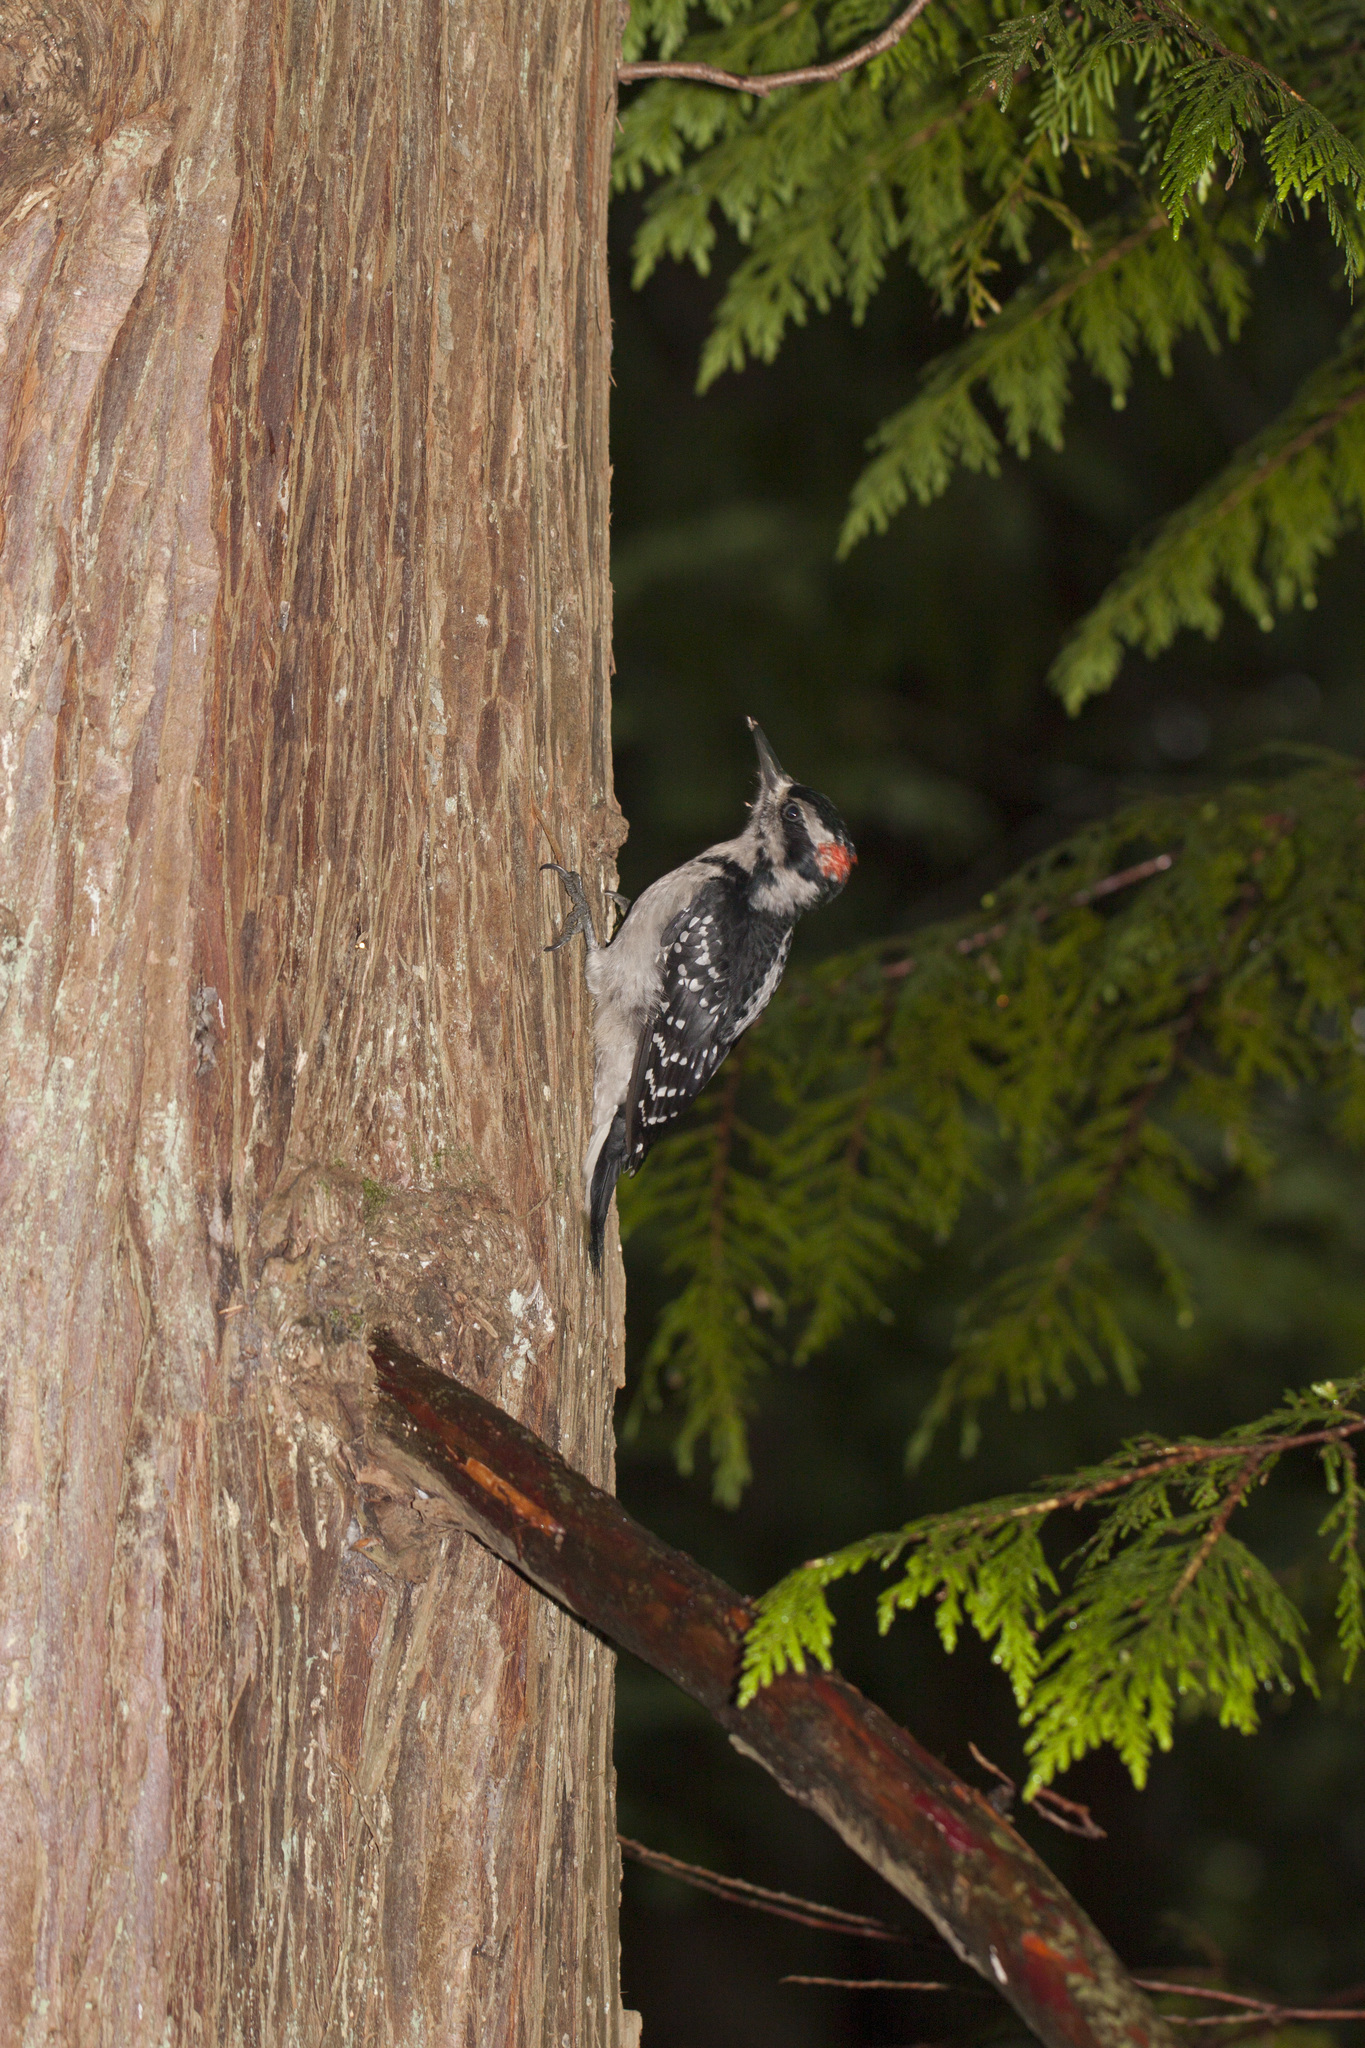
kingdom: Animalia
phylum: Chordata
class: Aves
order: Piciformes
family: Picidae
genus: Leuconotopicus
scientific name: Leuconotopicus villosus
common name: Hairy woodpecker
